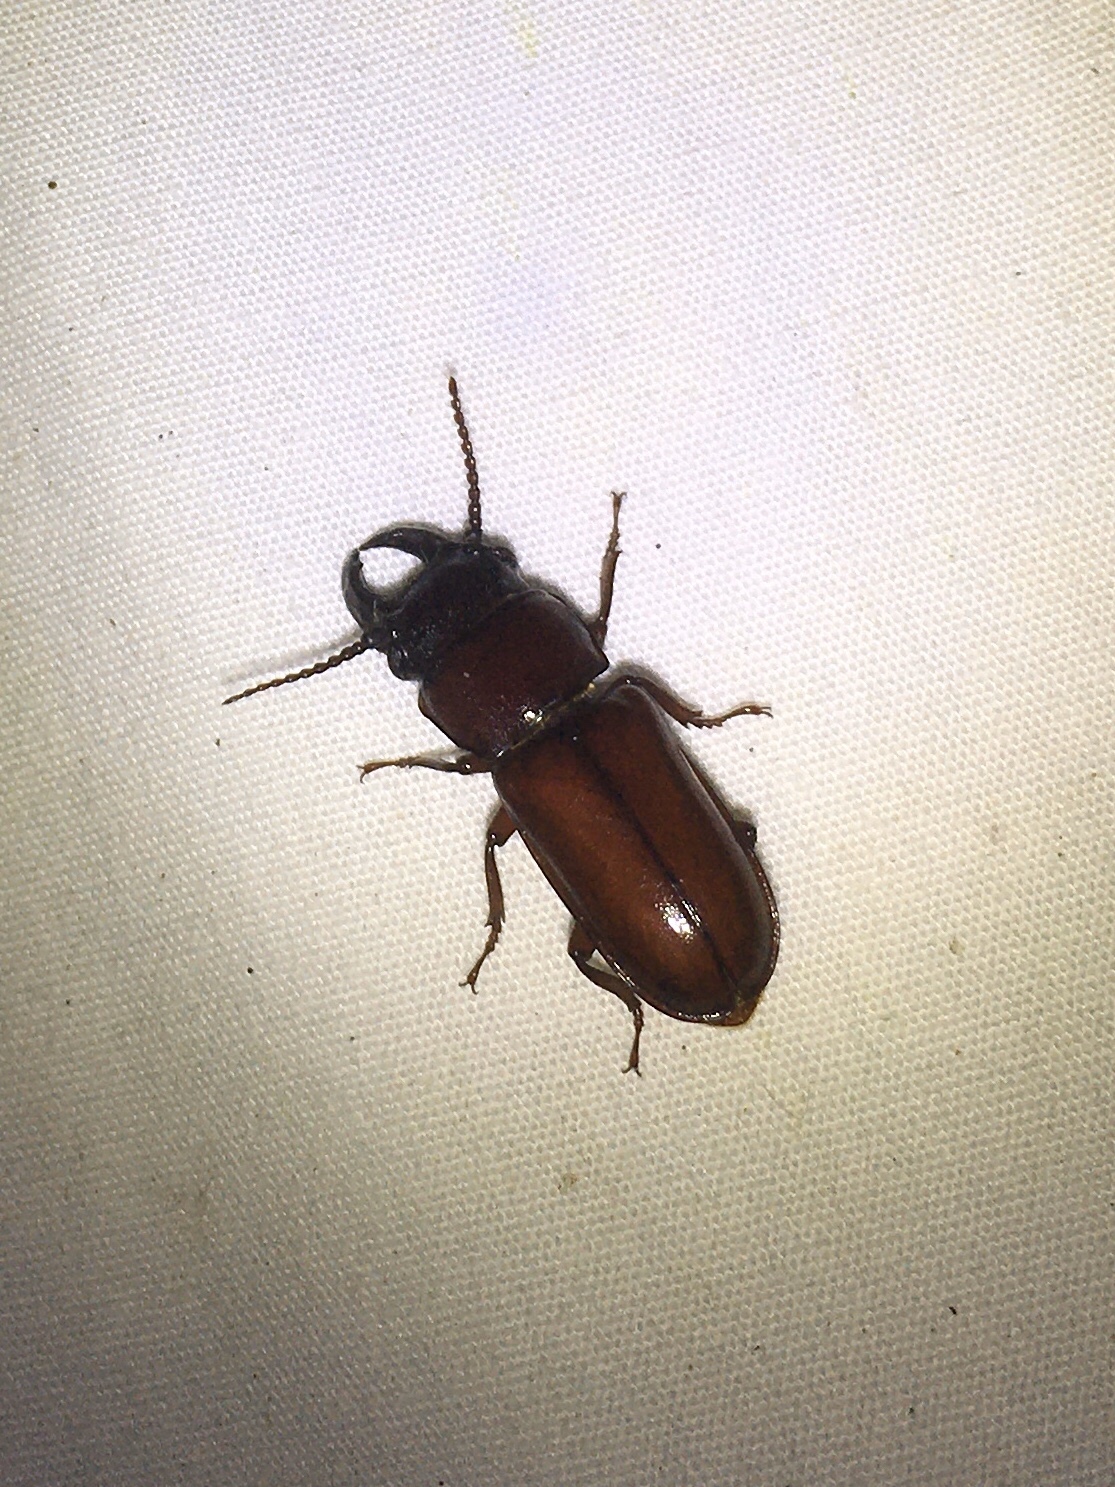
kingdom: Animalia
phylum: Arthropoda
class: Insecta
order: Coleoptera
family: Cerambycidae
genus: Neandra
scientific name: Neandra brunnea
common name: Pole borer
